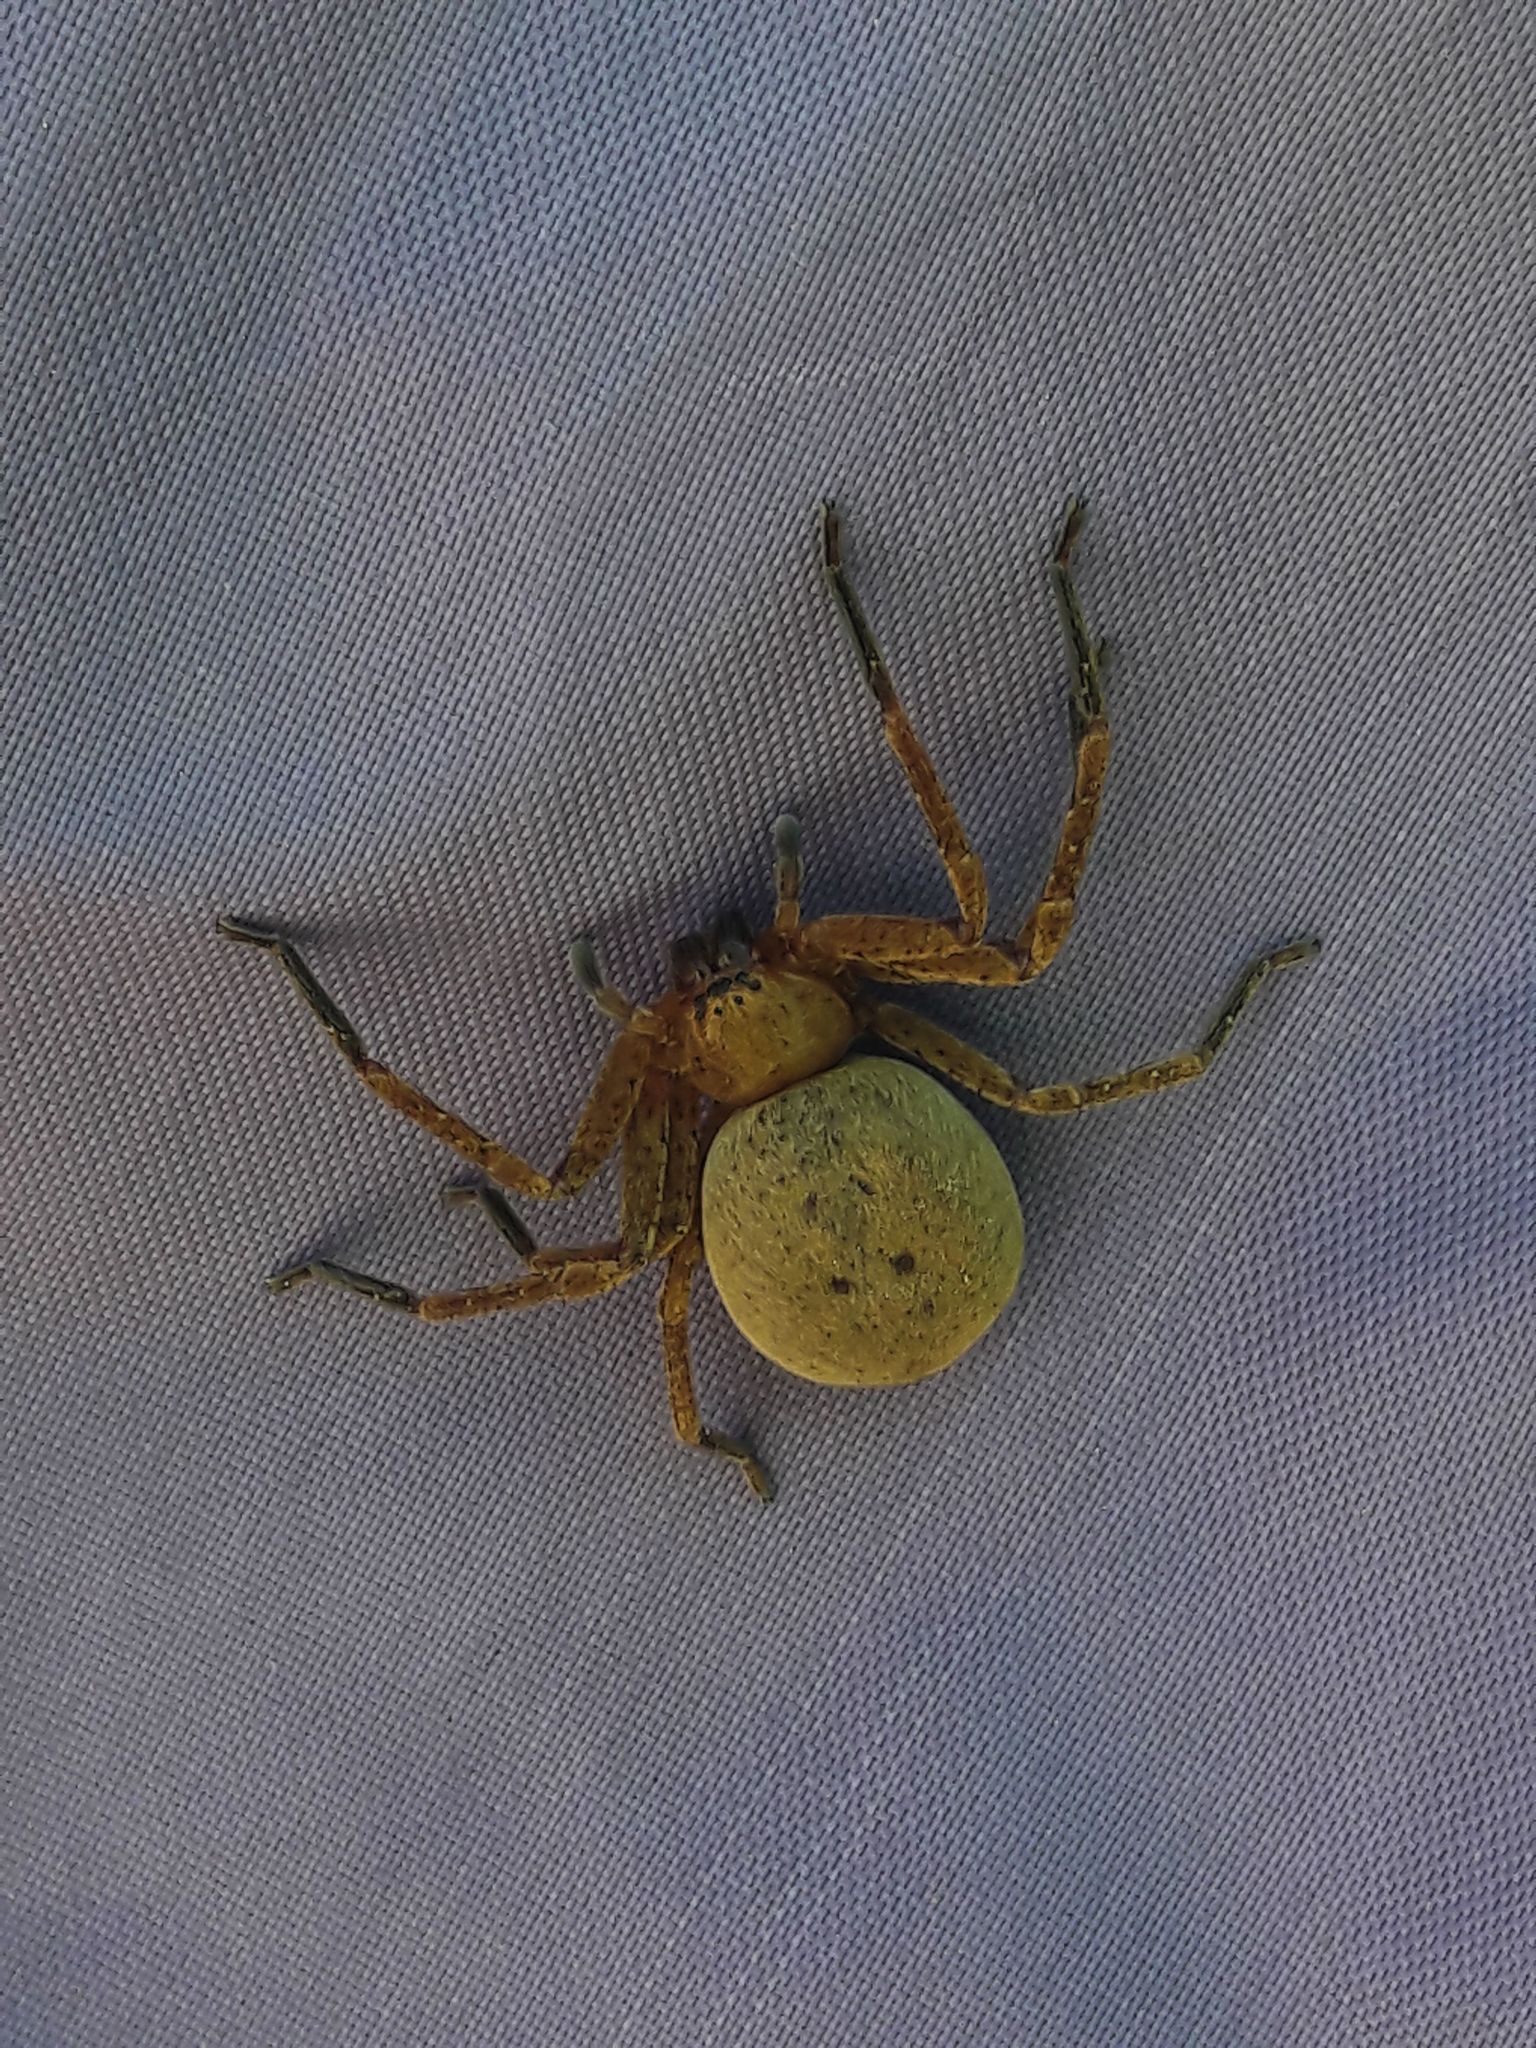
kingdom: Animalia
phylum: Arthropoda
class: Arachnida
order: Araneae
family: Sparassidae
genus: Olios
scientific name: Olios argelasius
